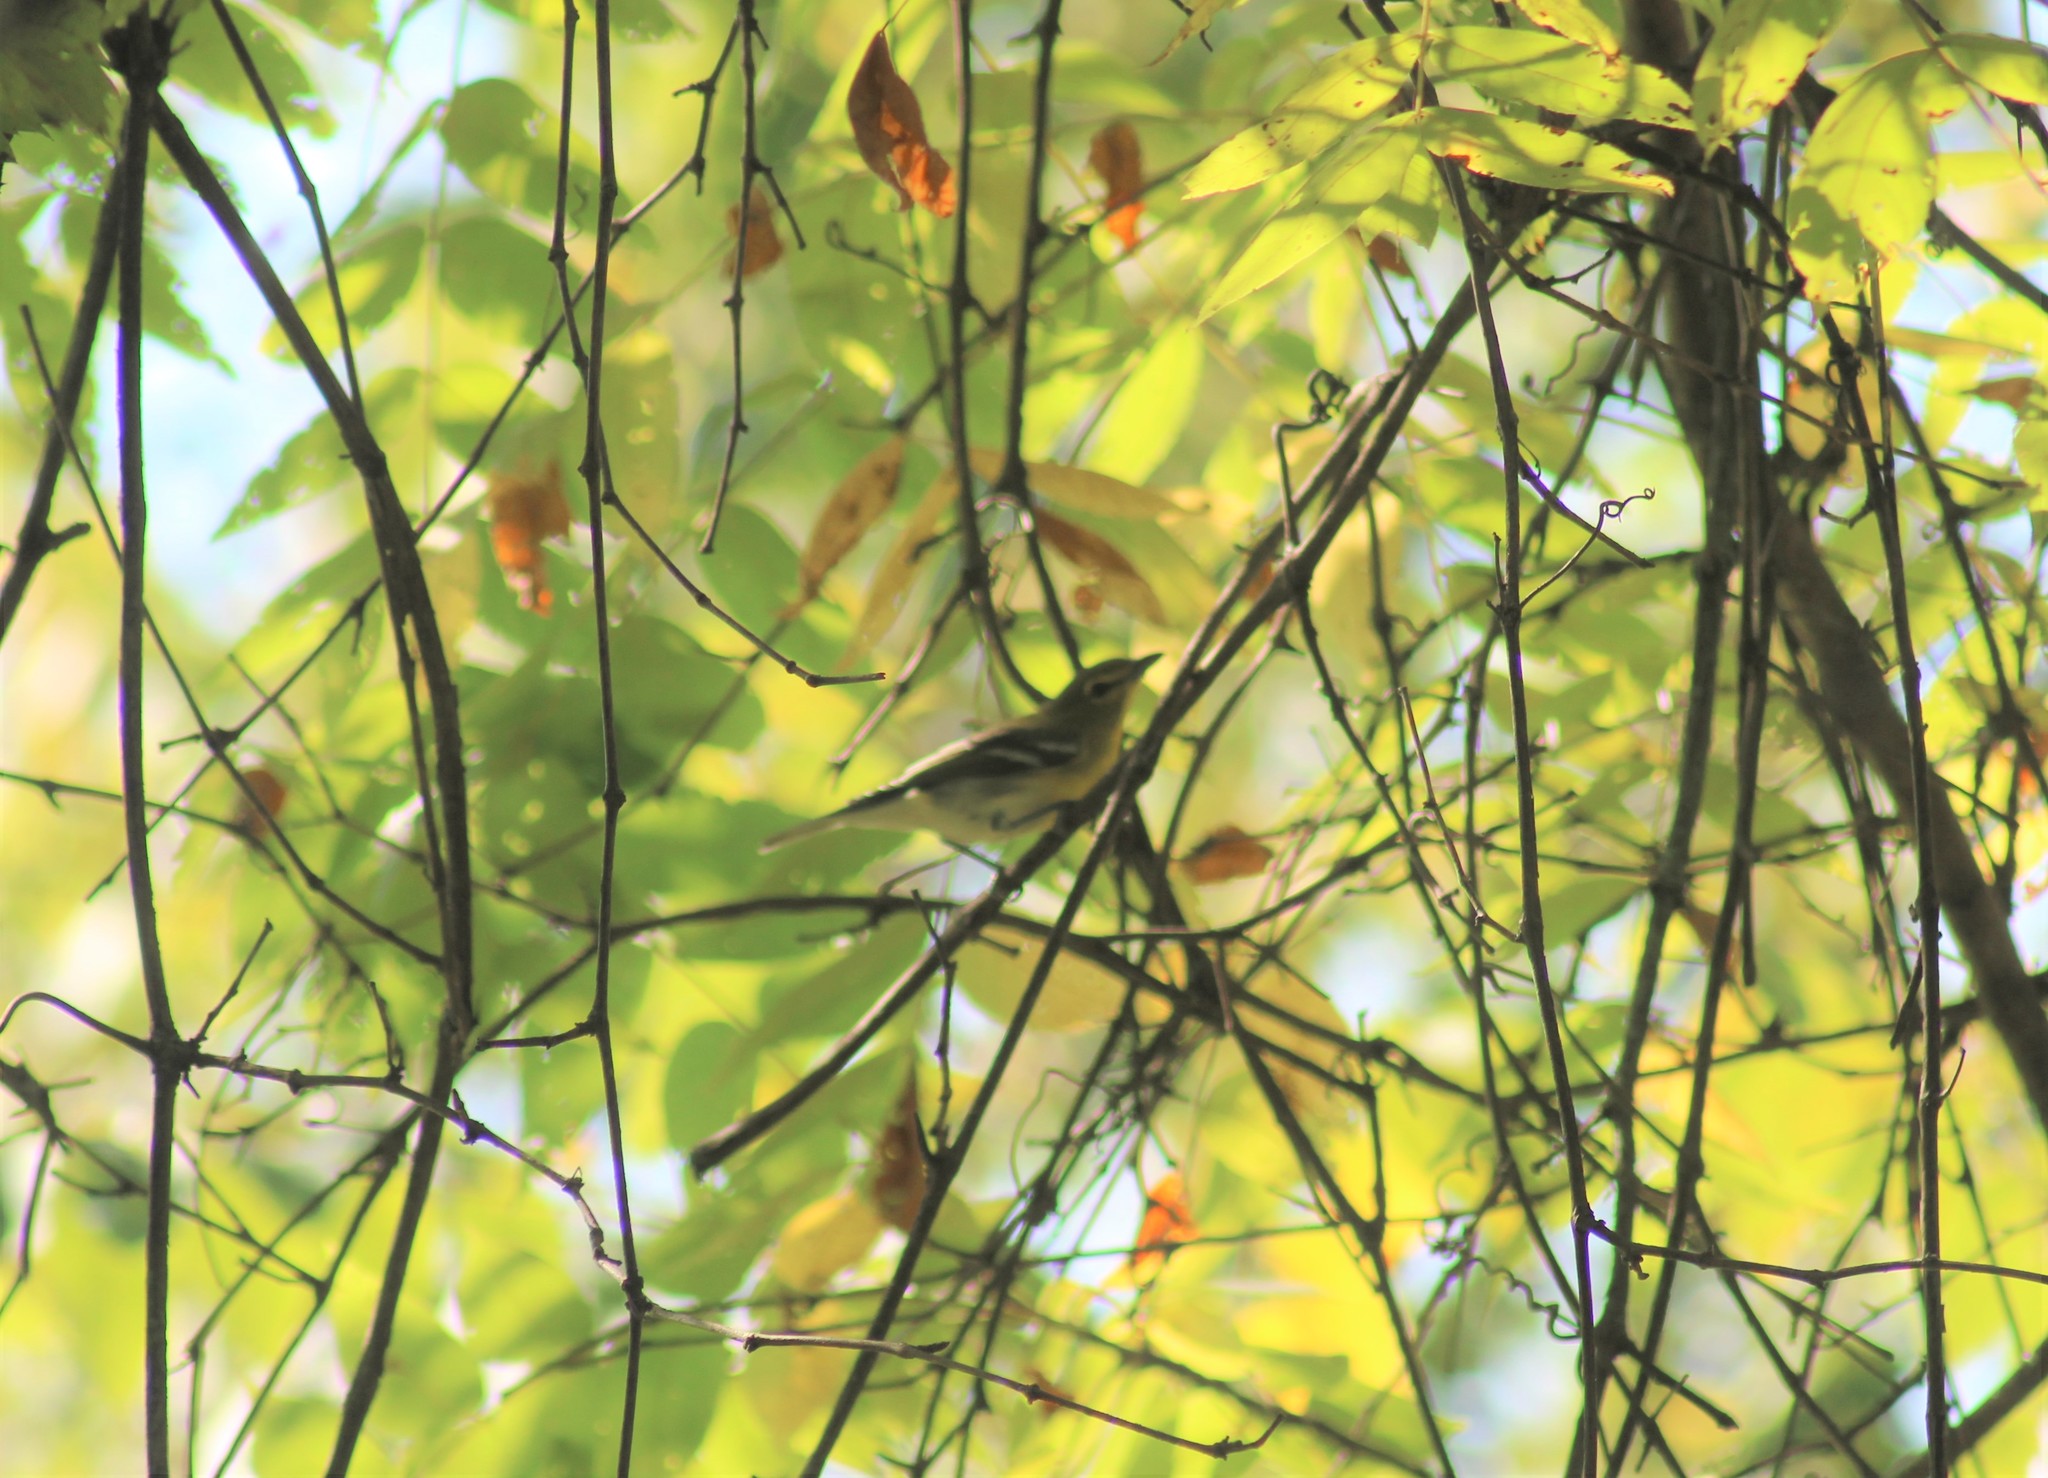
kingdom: Animalia
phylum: Chordata
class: Aves
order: Passeriformes
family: Vireonidae
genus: Vireo
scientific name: Vireo flavifrons
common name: Yellow-throated vireo
